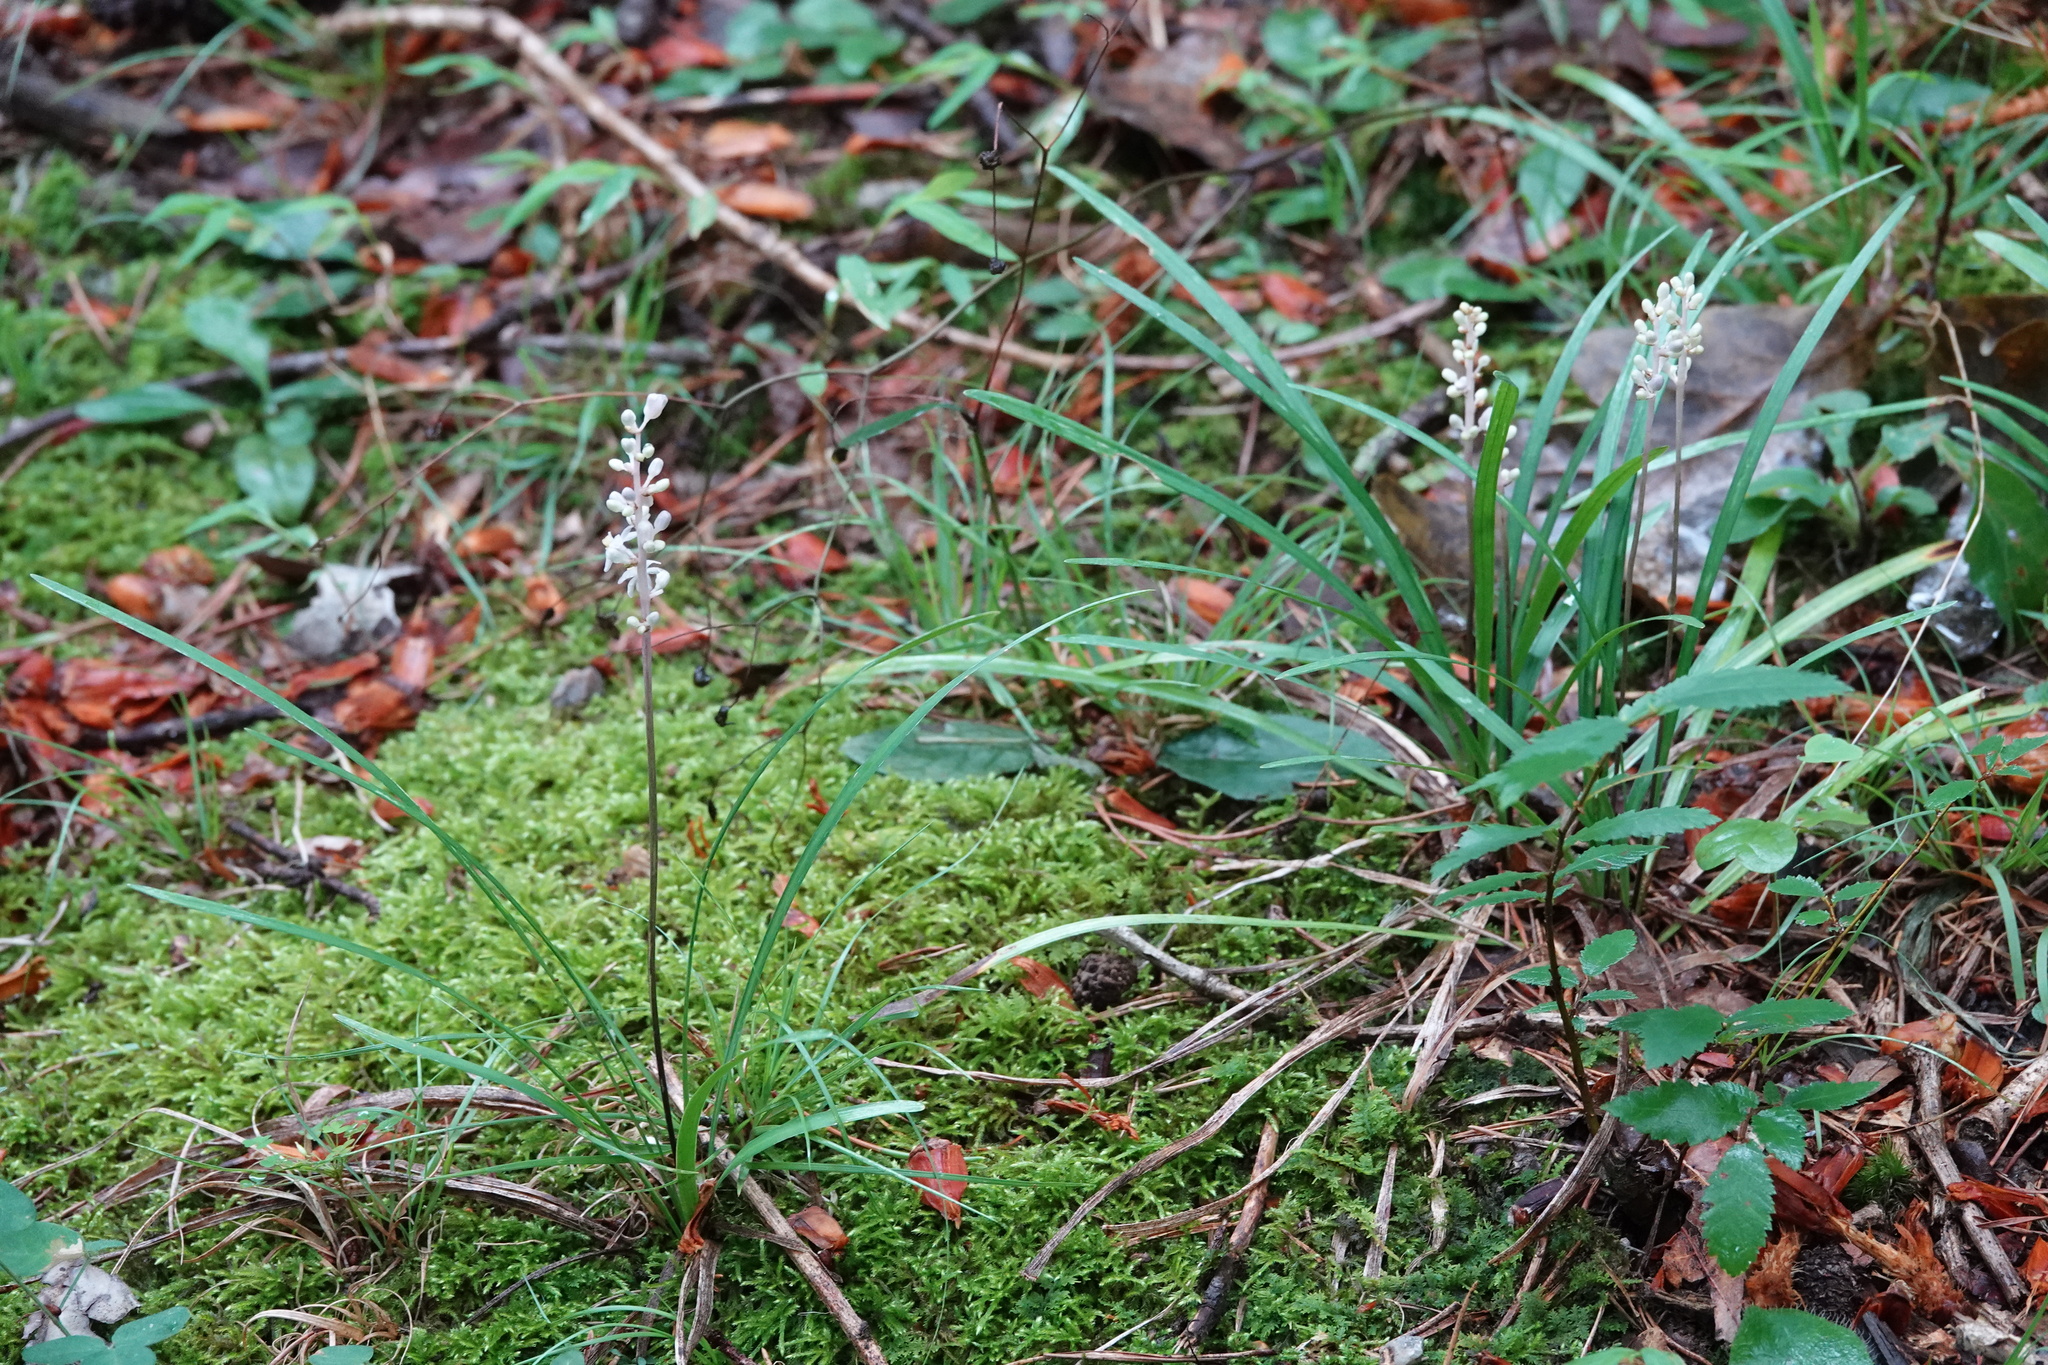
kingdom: Plantae
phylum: Tracheophyta
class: Liliopsida
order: Asparagales
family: Asparagaceae
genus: Liriope
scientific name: Liriope spicata
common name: Creeping liriope
